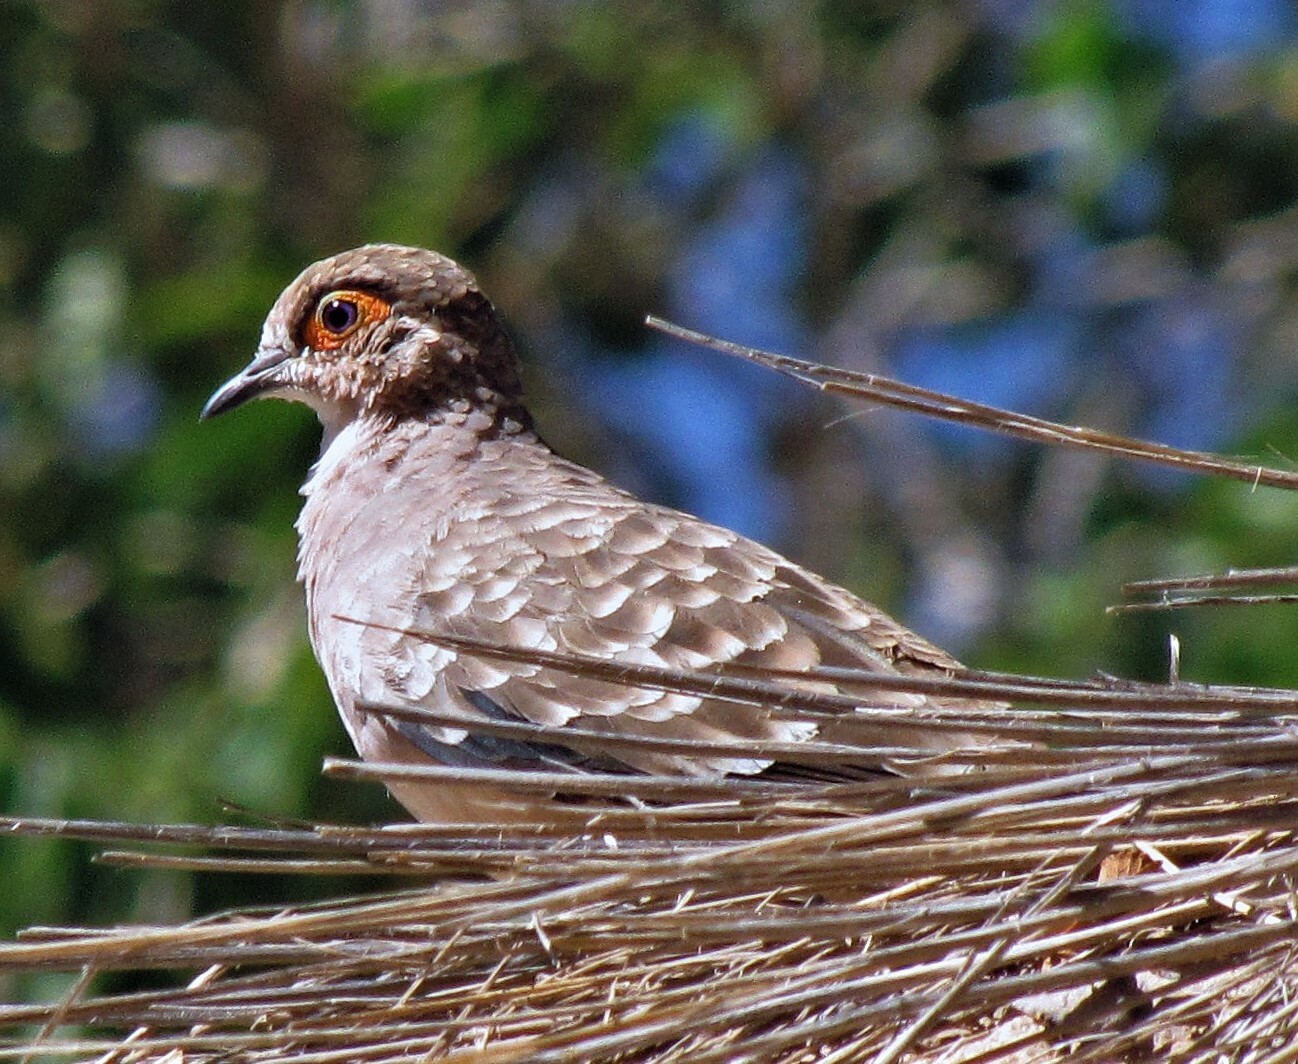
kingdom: Animalia
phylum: Chordata
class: Aves
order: Columbiformes
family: Columbidae
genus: Metriopelia
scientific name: Metriopelia ceciliae
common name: Bare-faced ground dove
